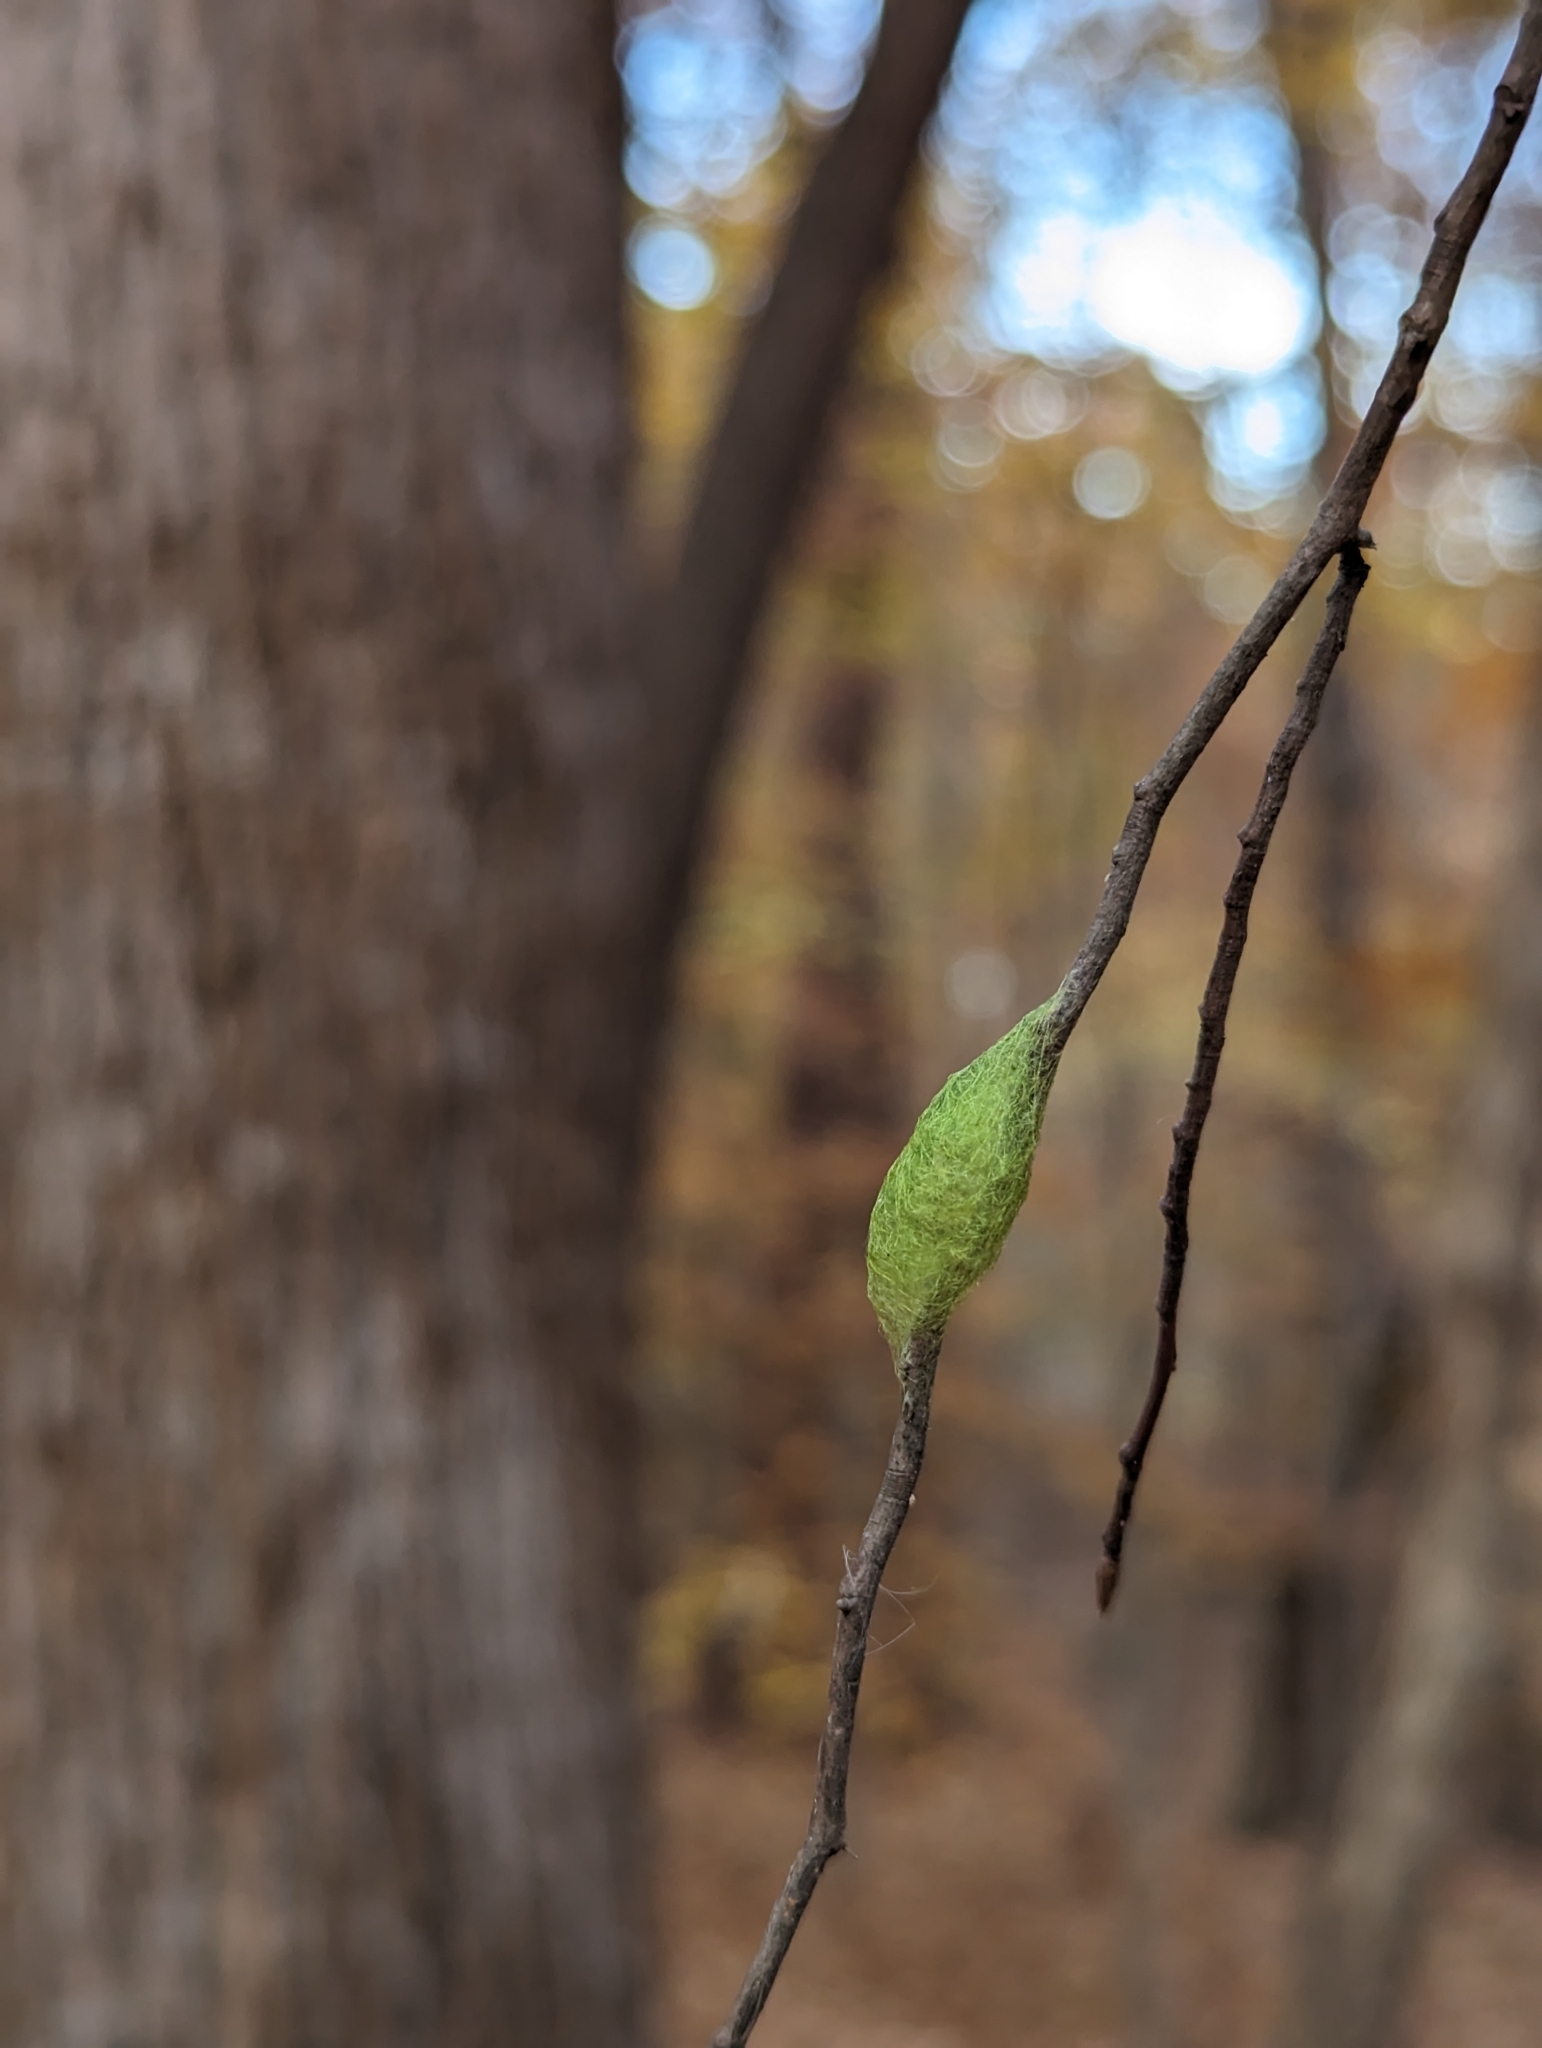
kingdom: Animalia
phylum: Arthropoda
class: Arachnida
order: Araneae
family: Araneidae
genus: Gasteracantha
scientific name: Gasteracantha cancriformis
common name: Orb weavers
